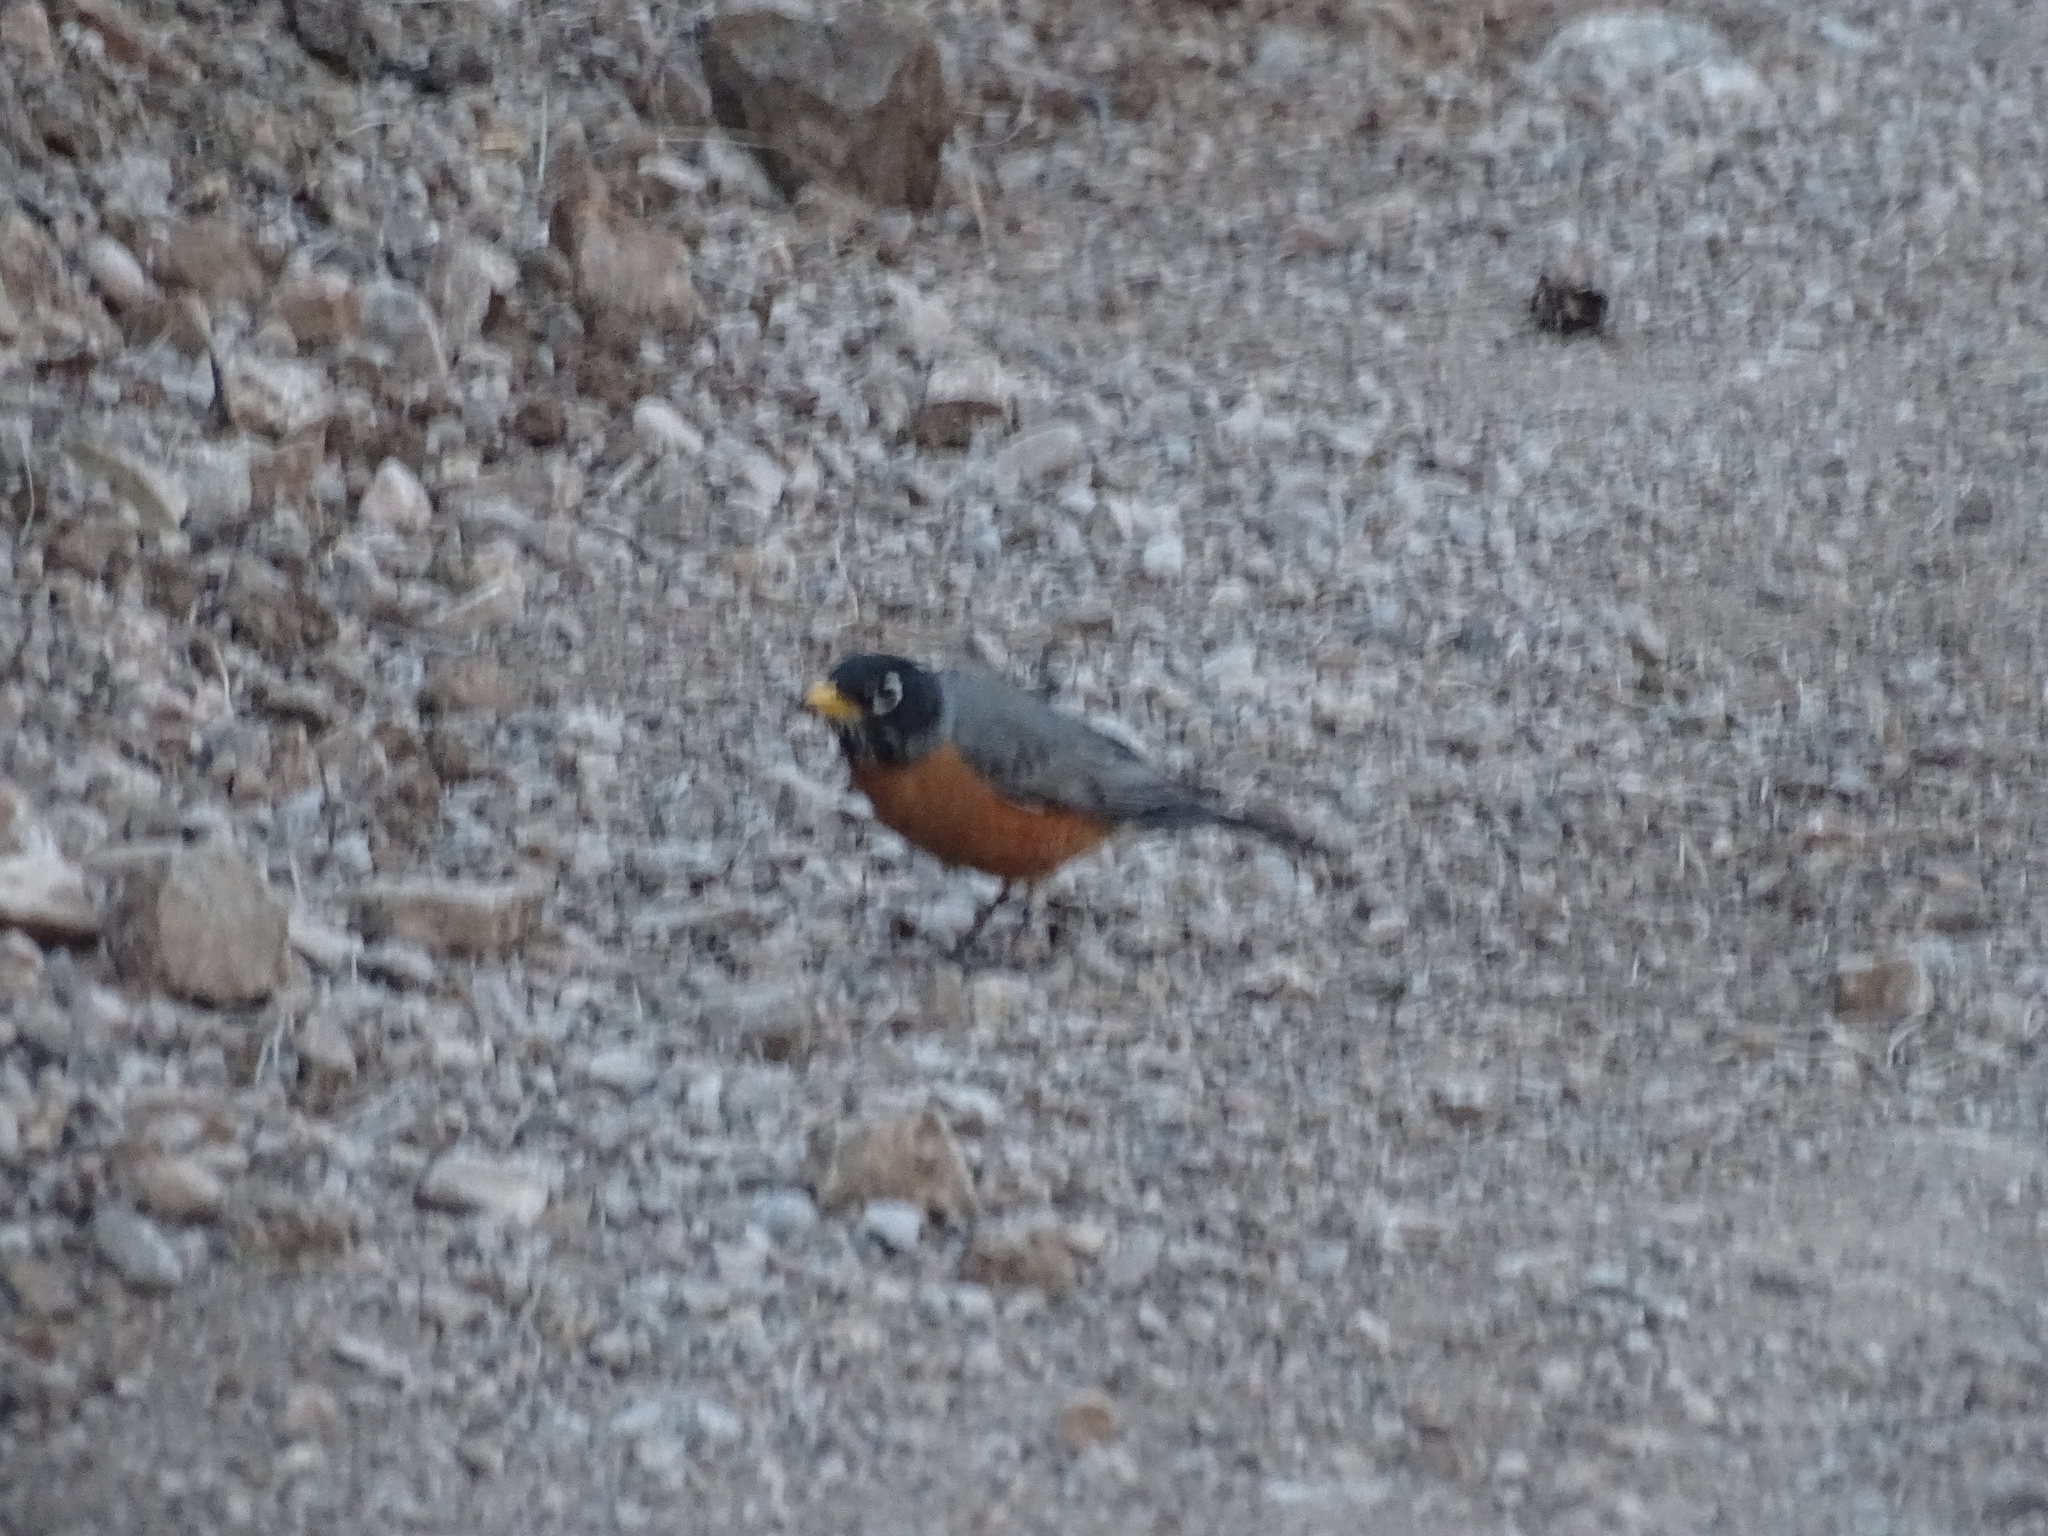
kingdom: Animalia
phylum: Chordata
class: Aves
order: Passeriformes
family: Turdidae
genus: Turdus
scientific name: Turdus migratorius
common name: American robin
